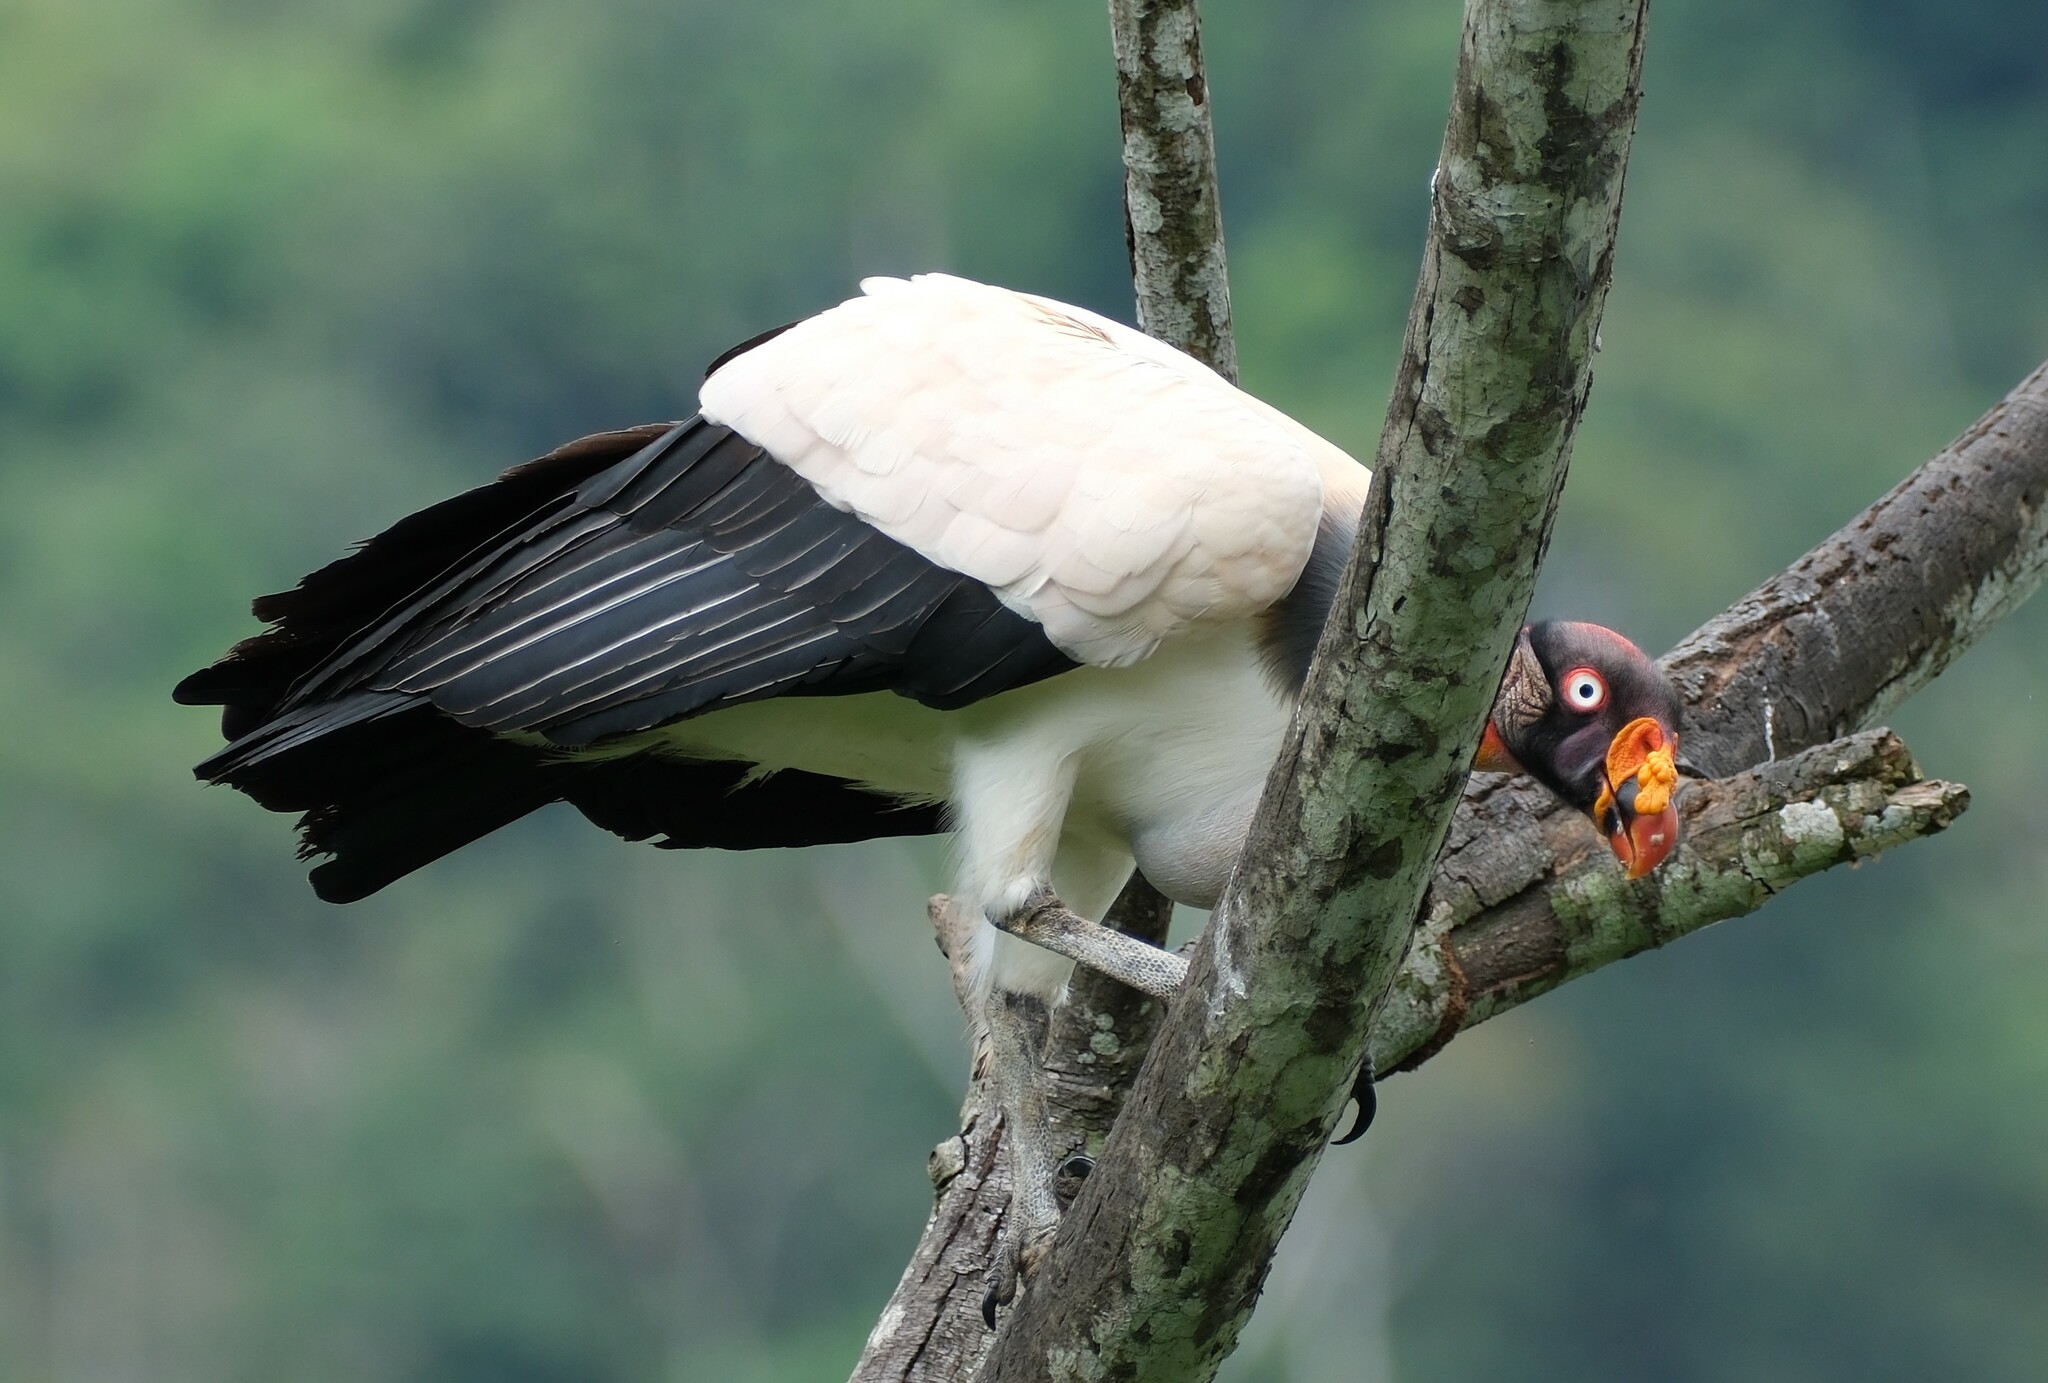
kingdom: Animalia
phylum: Chordata
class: Aves
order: Accipitriformes
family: Cathartidae
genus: Sarcoramphus
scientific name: Sarcoramphus papa
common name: King vulture
